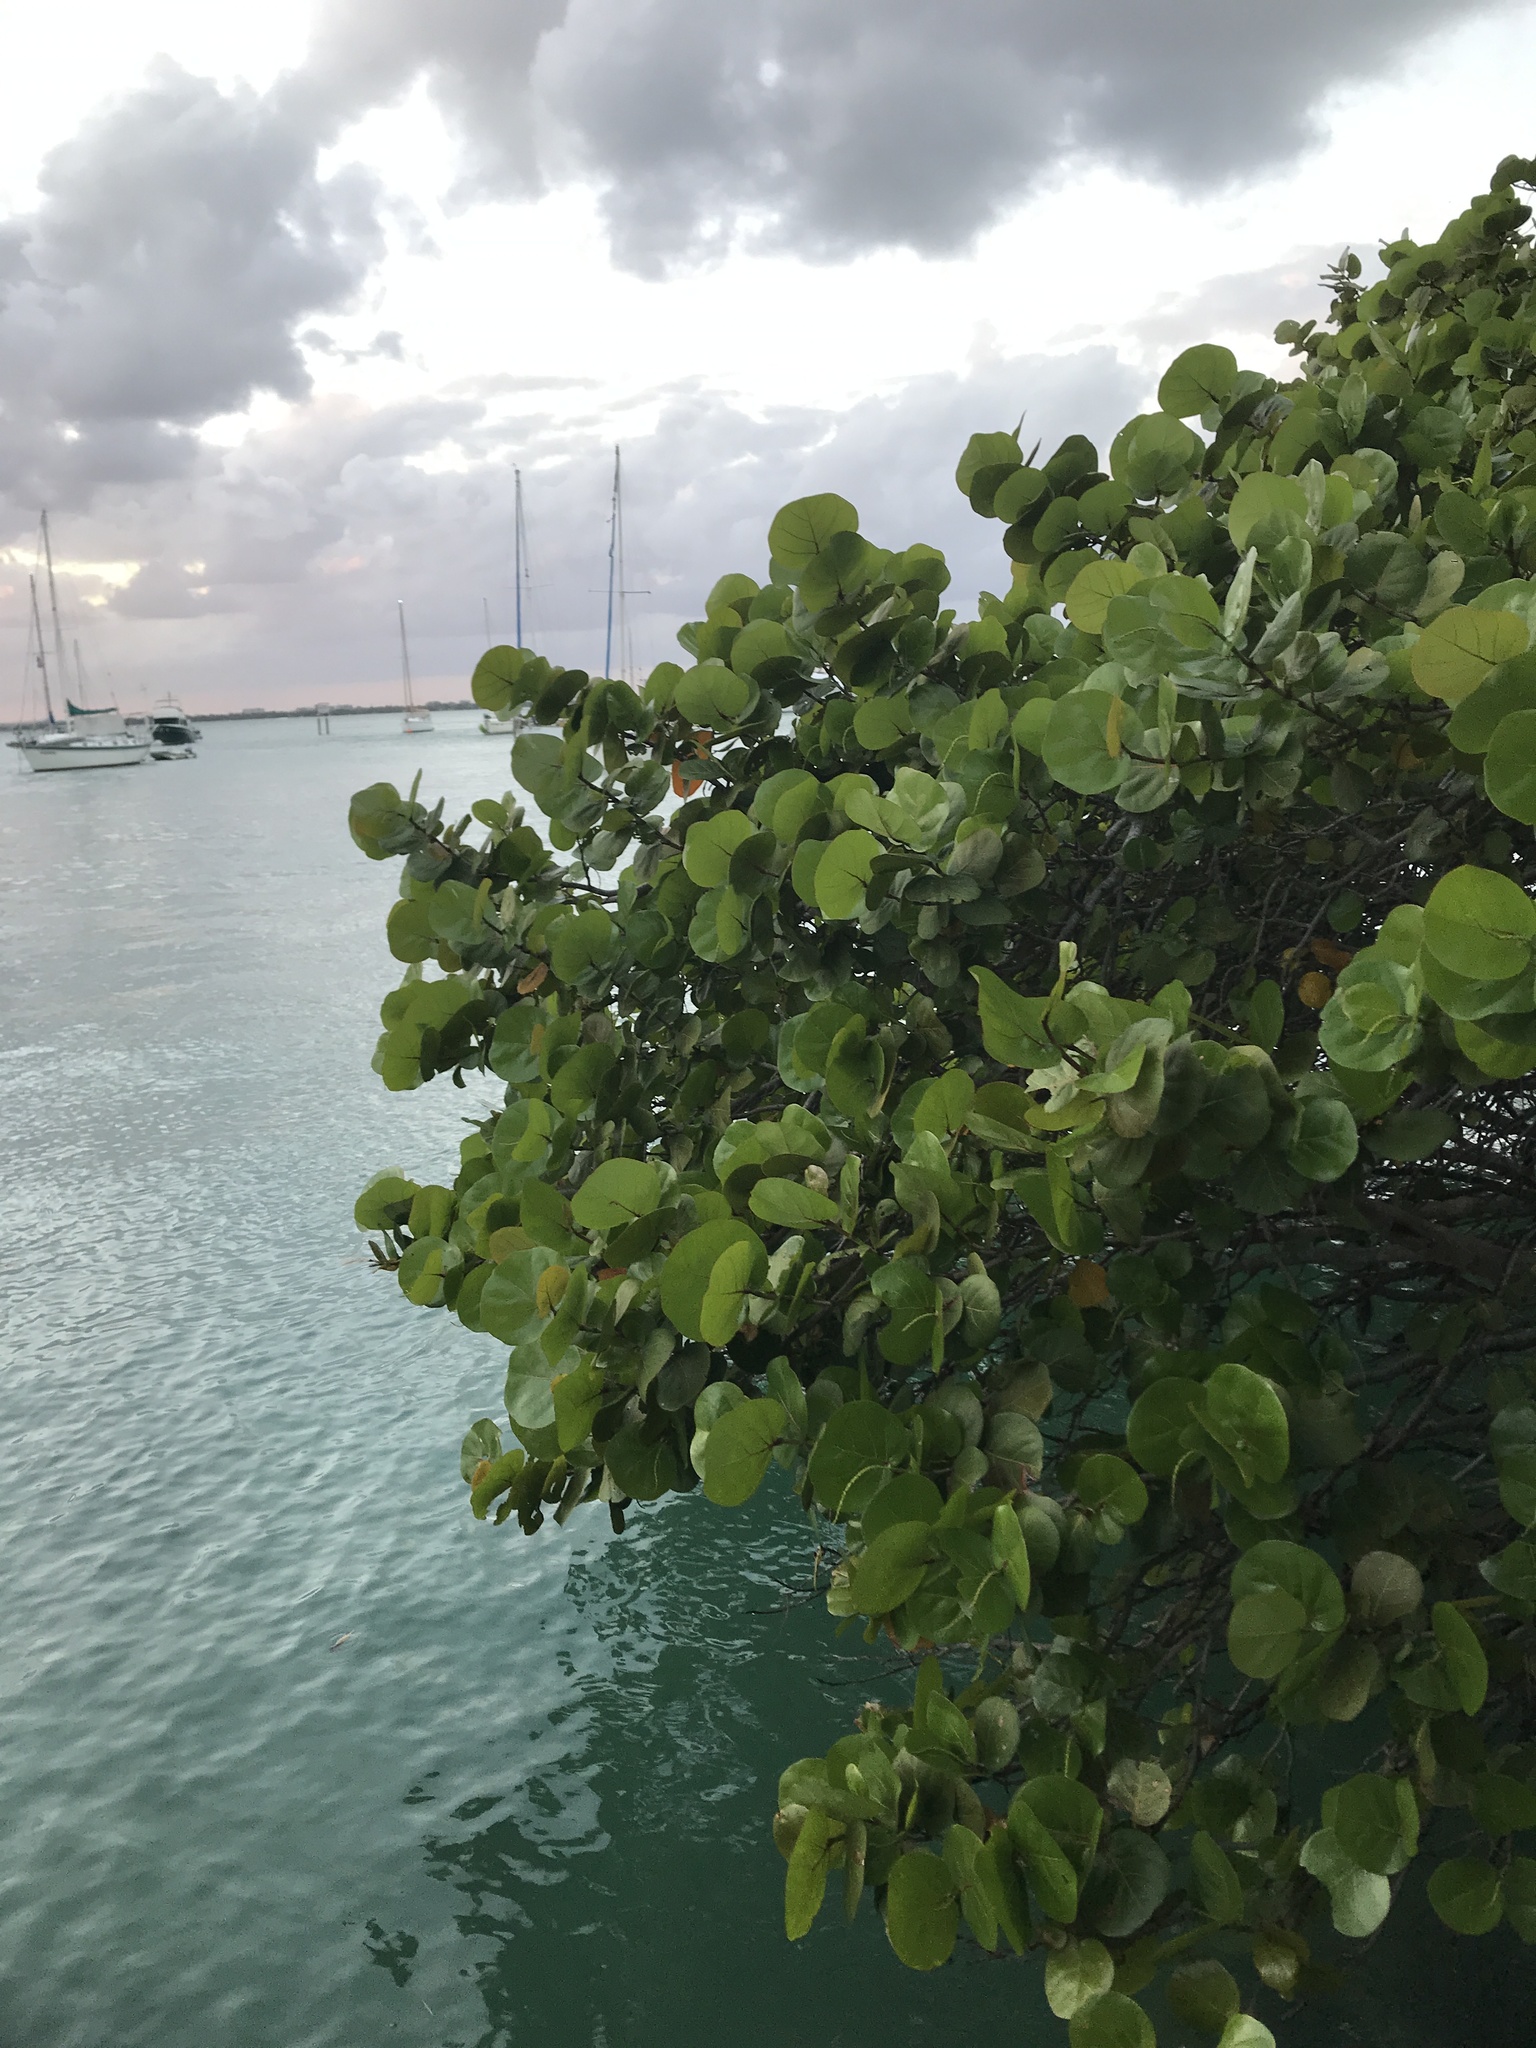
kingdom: Plantae
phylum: Tracheophyta
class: Magnoliopsida
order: Caryophyllales
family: Polygonaceae
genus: Coccoloba
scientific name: Coccoloba uvifera
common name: Seagrape
